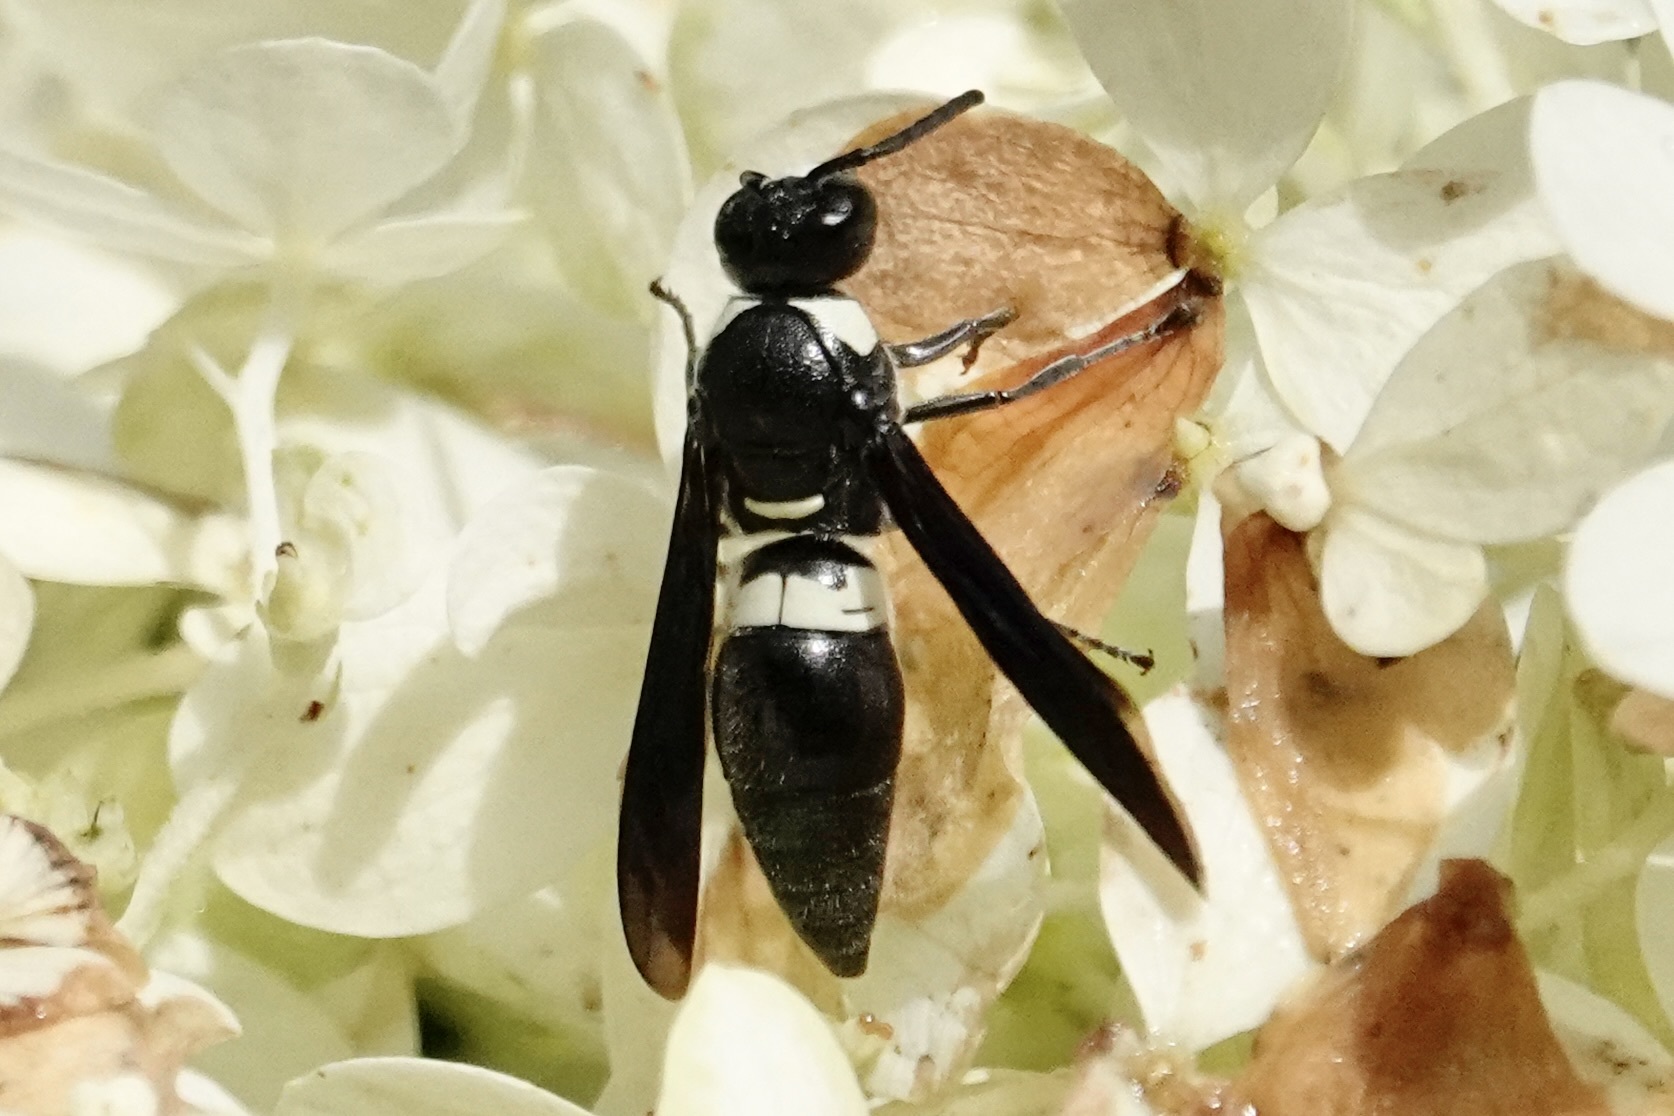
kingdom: Animalia
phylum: Arthropoda
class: Insecta
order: Hymenoptera
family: Eumenidae
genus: Monobia
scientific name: Monobia quadridens
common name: Four-toothed mason wasp
